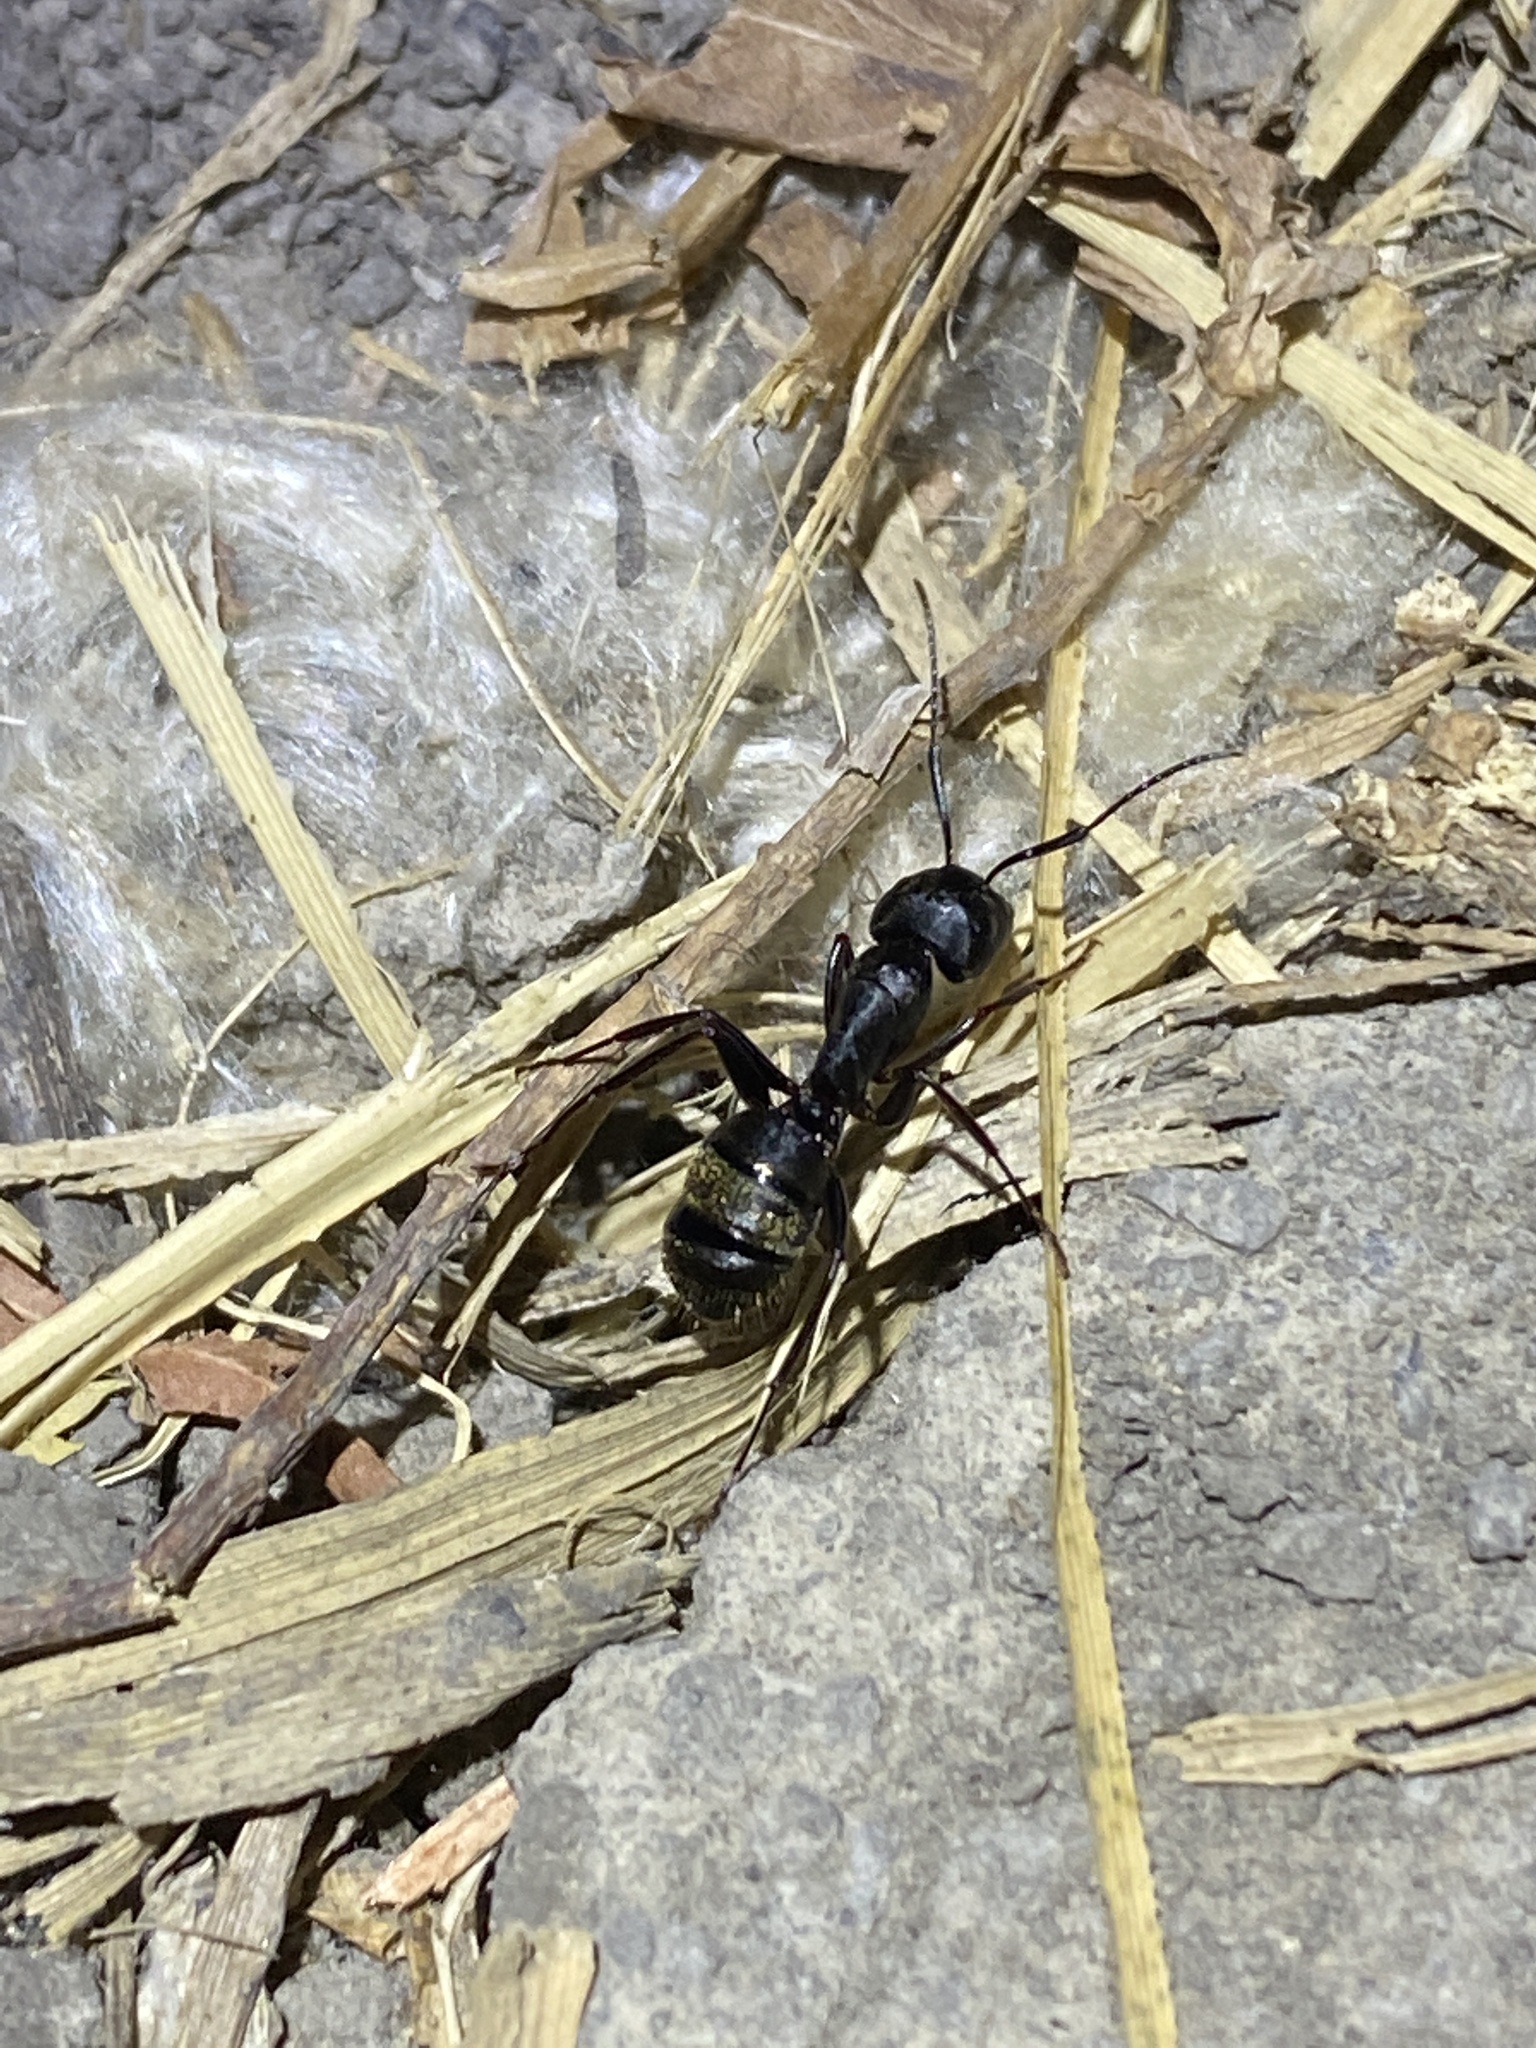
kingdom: Animalia
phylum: Arthropoda
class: Insecta
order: Hymenoptera
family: Formicidae
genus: Camponotus
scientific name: Camponotus pennsylvanicus
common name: Black carpenter ant
